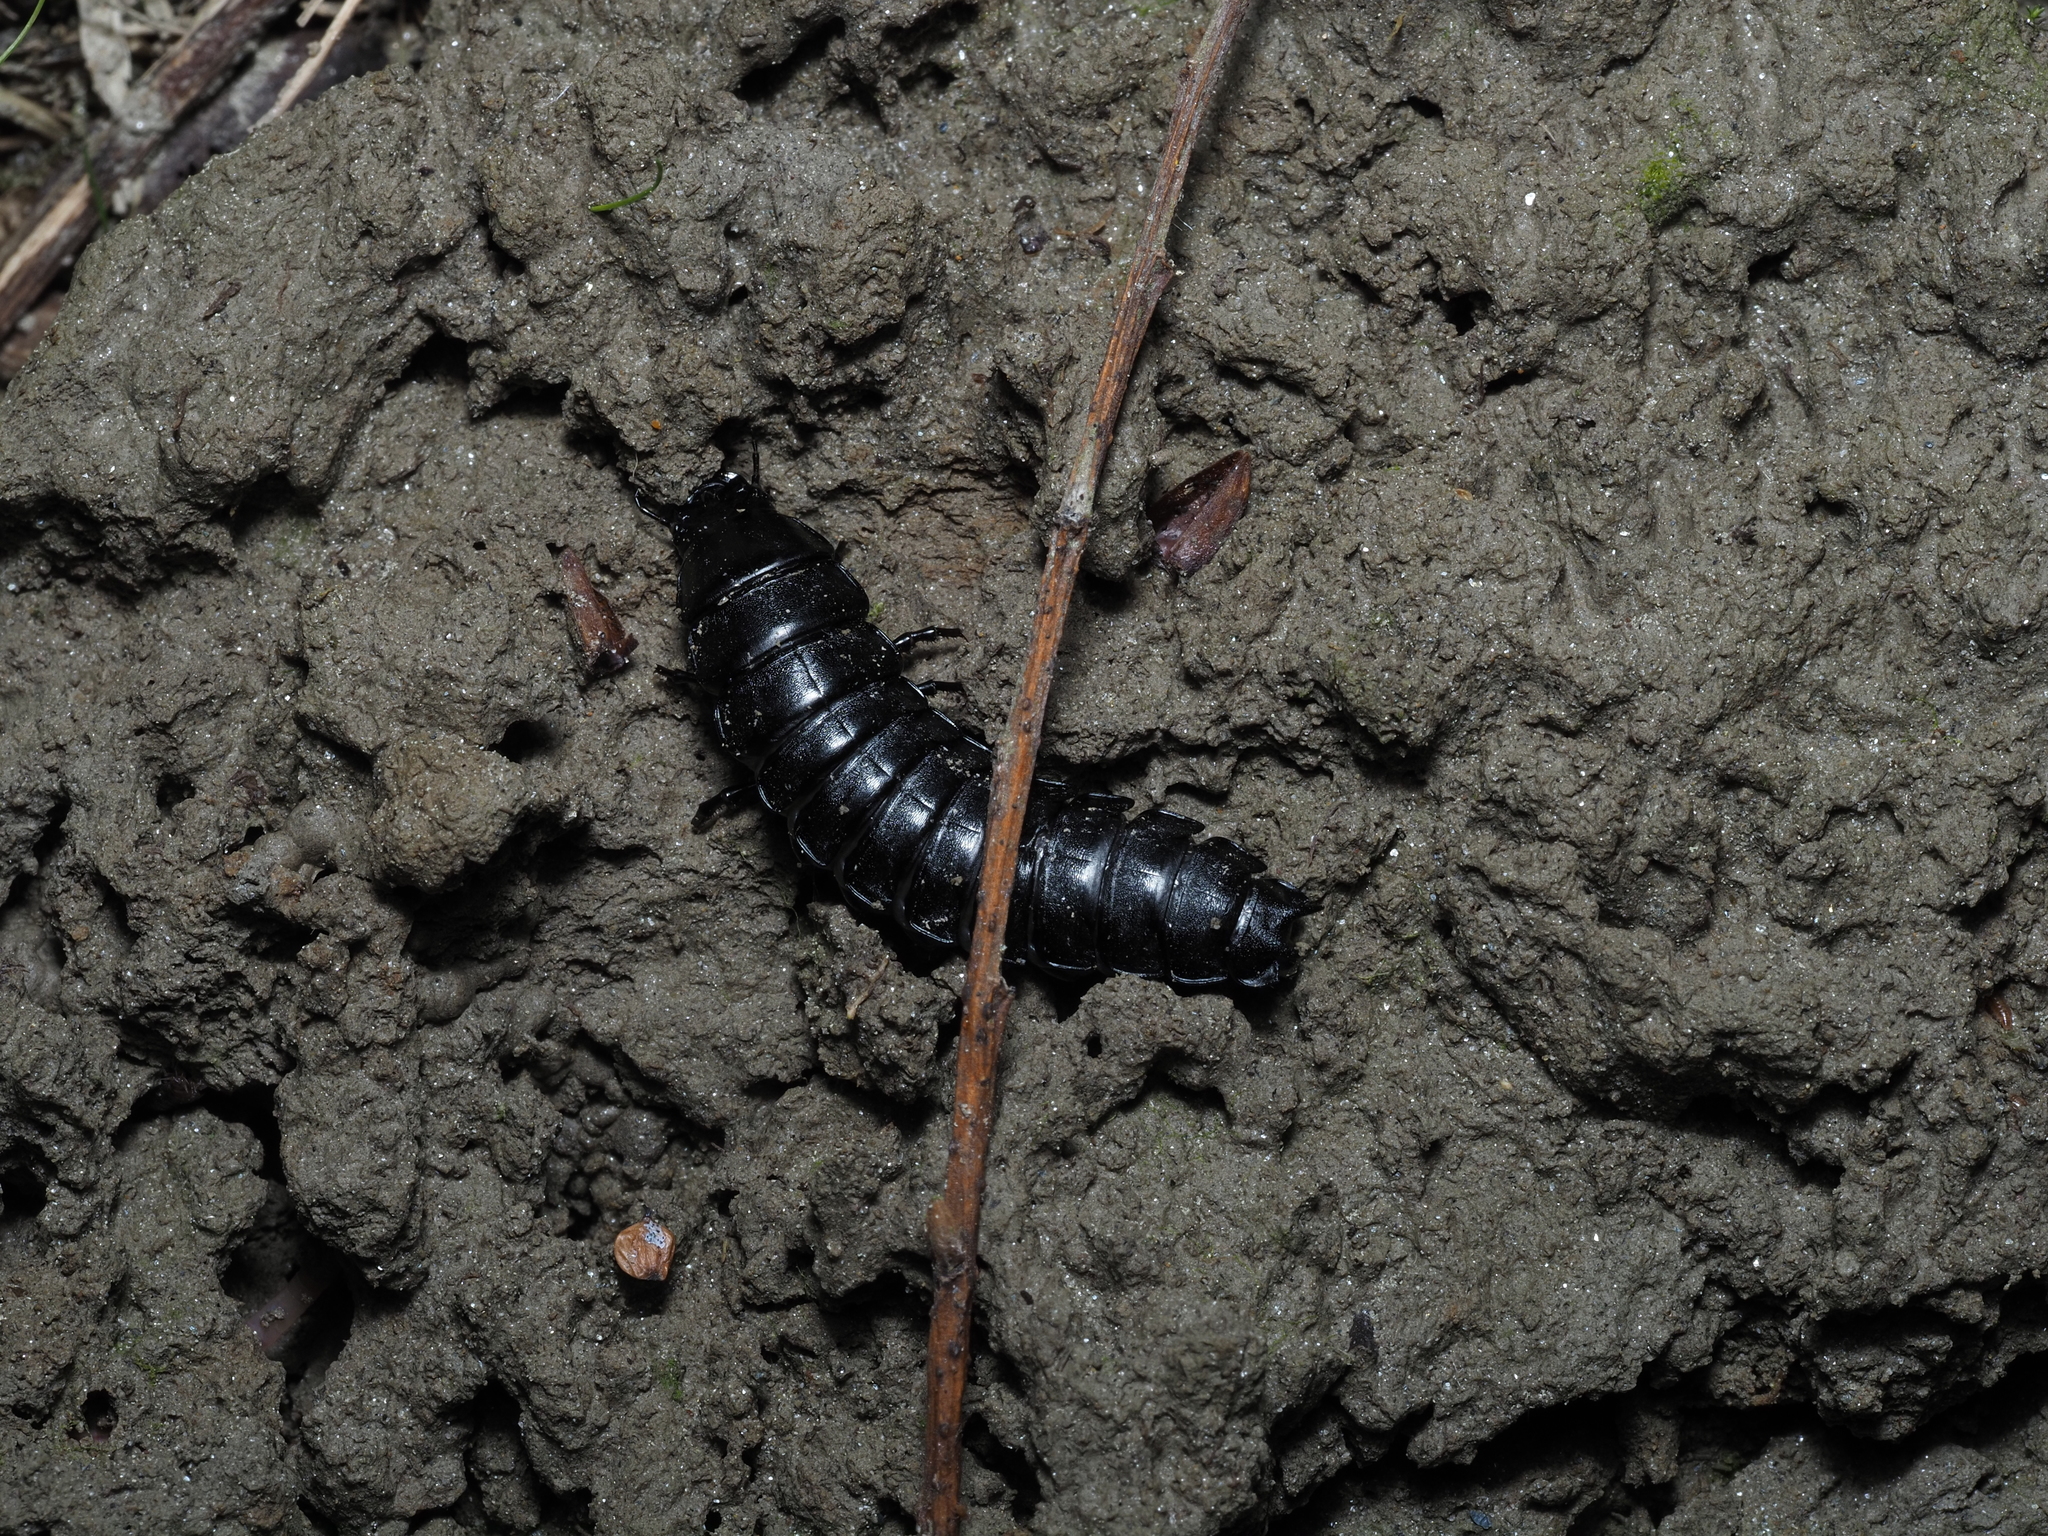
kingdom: Animalia
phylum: Arthropoda
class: Insecta
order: Coleoptera
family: Carabidae
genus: Carabus
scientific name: Carabus
